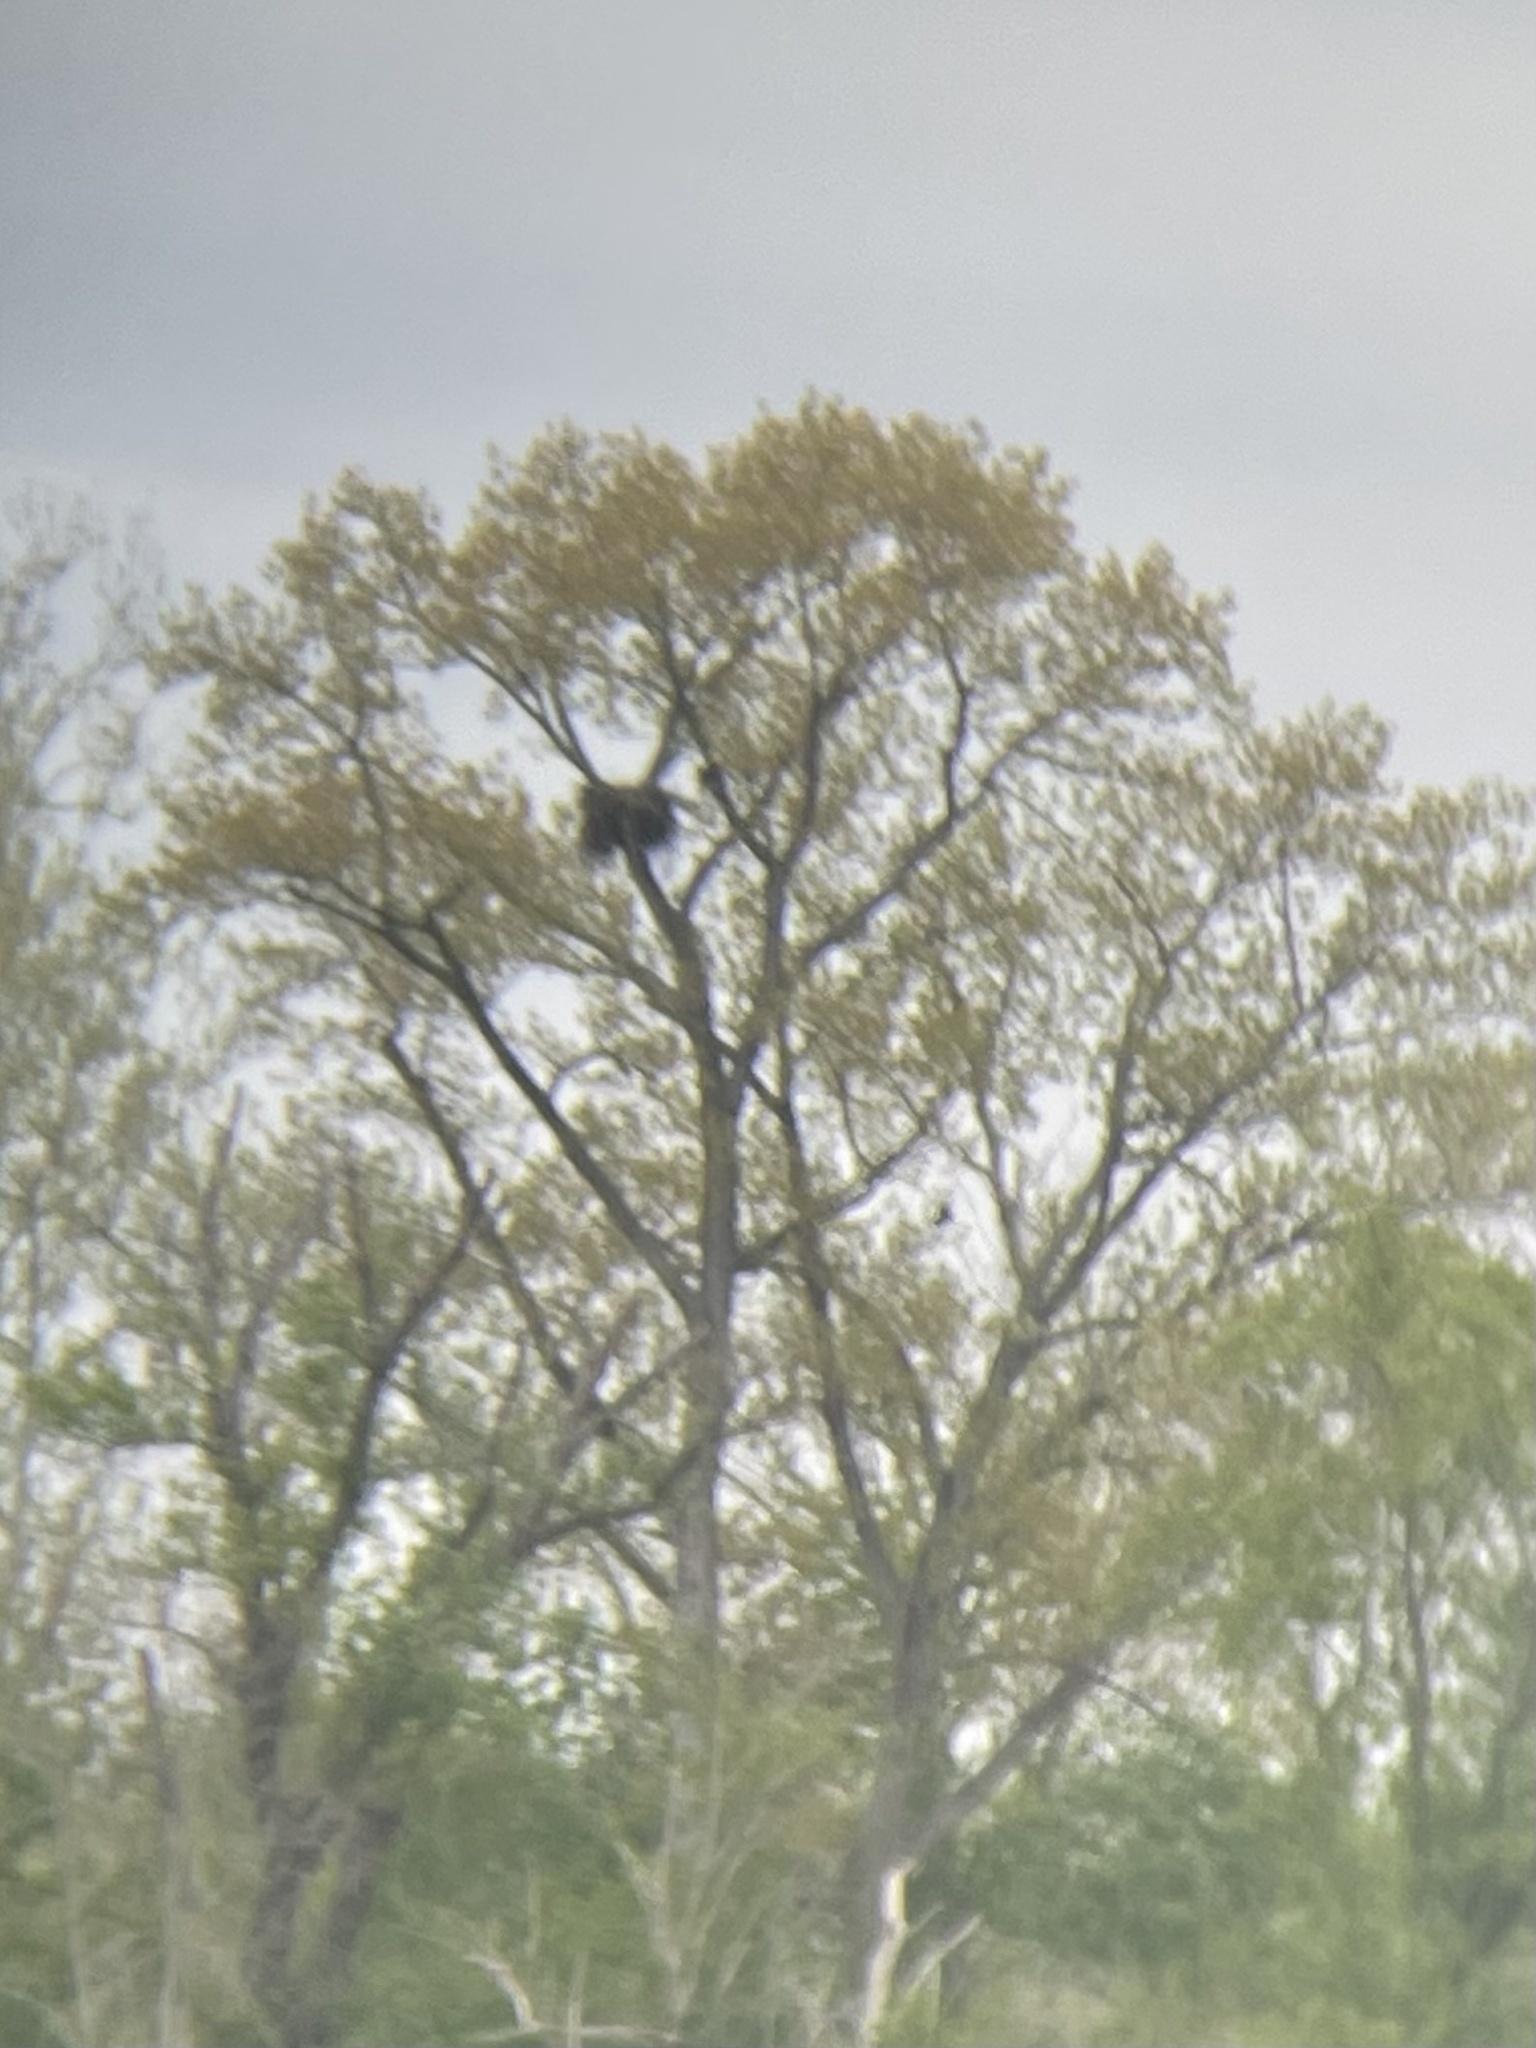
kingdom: Animalia
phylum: Chordata
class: Aves
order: Accipitriformes
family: Accipitridae
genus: Haliaeetus
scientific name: Haliaeetus leucocephalus
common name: Bald eagle
